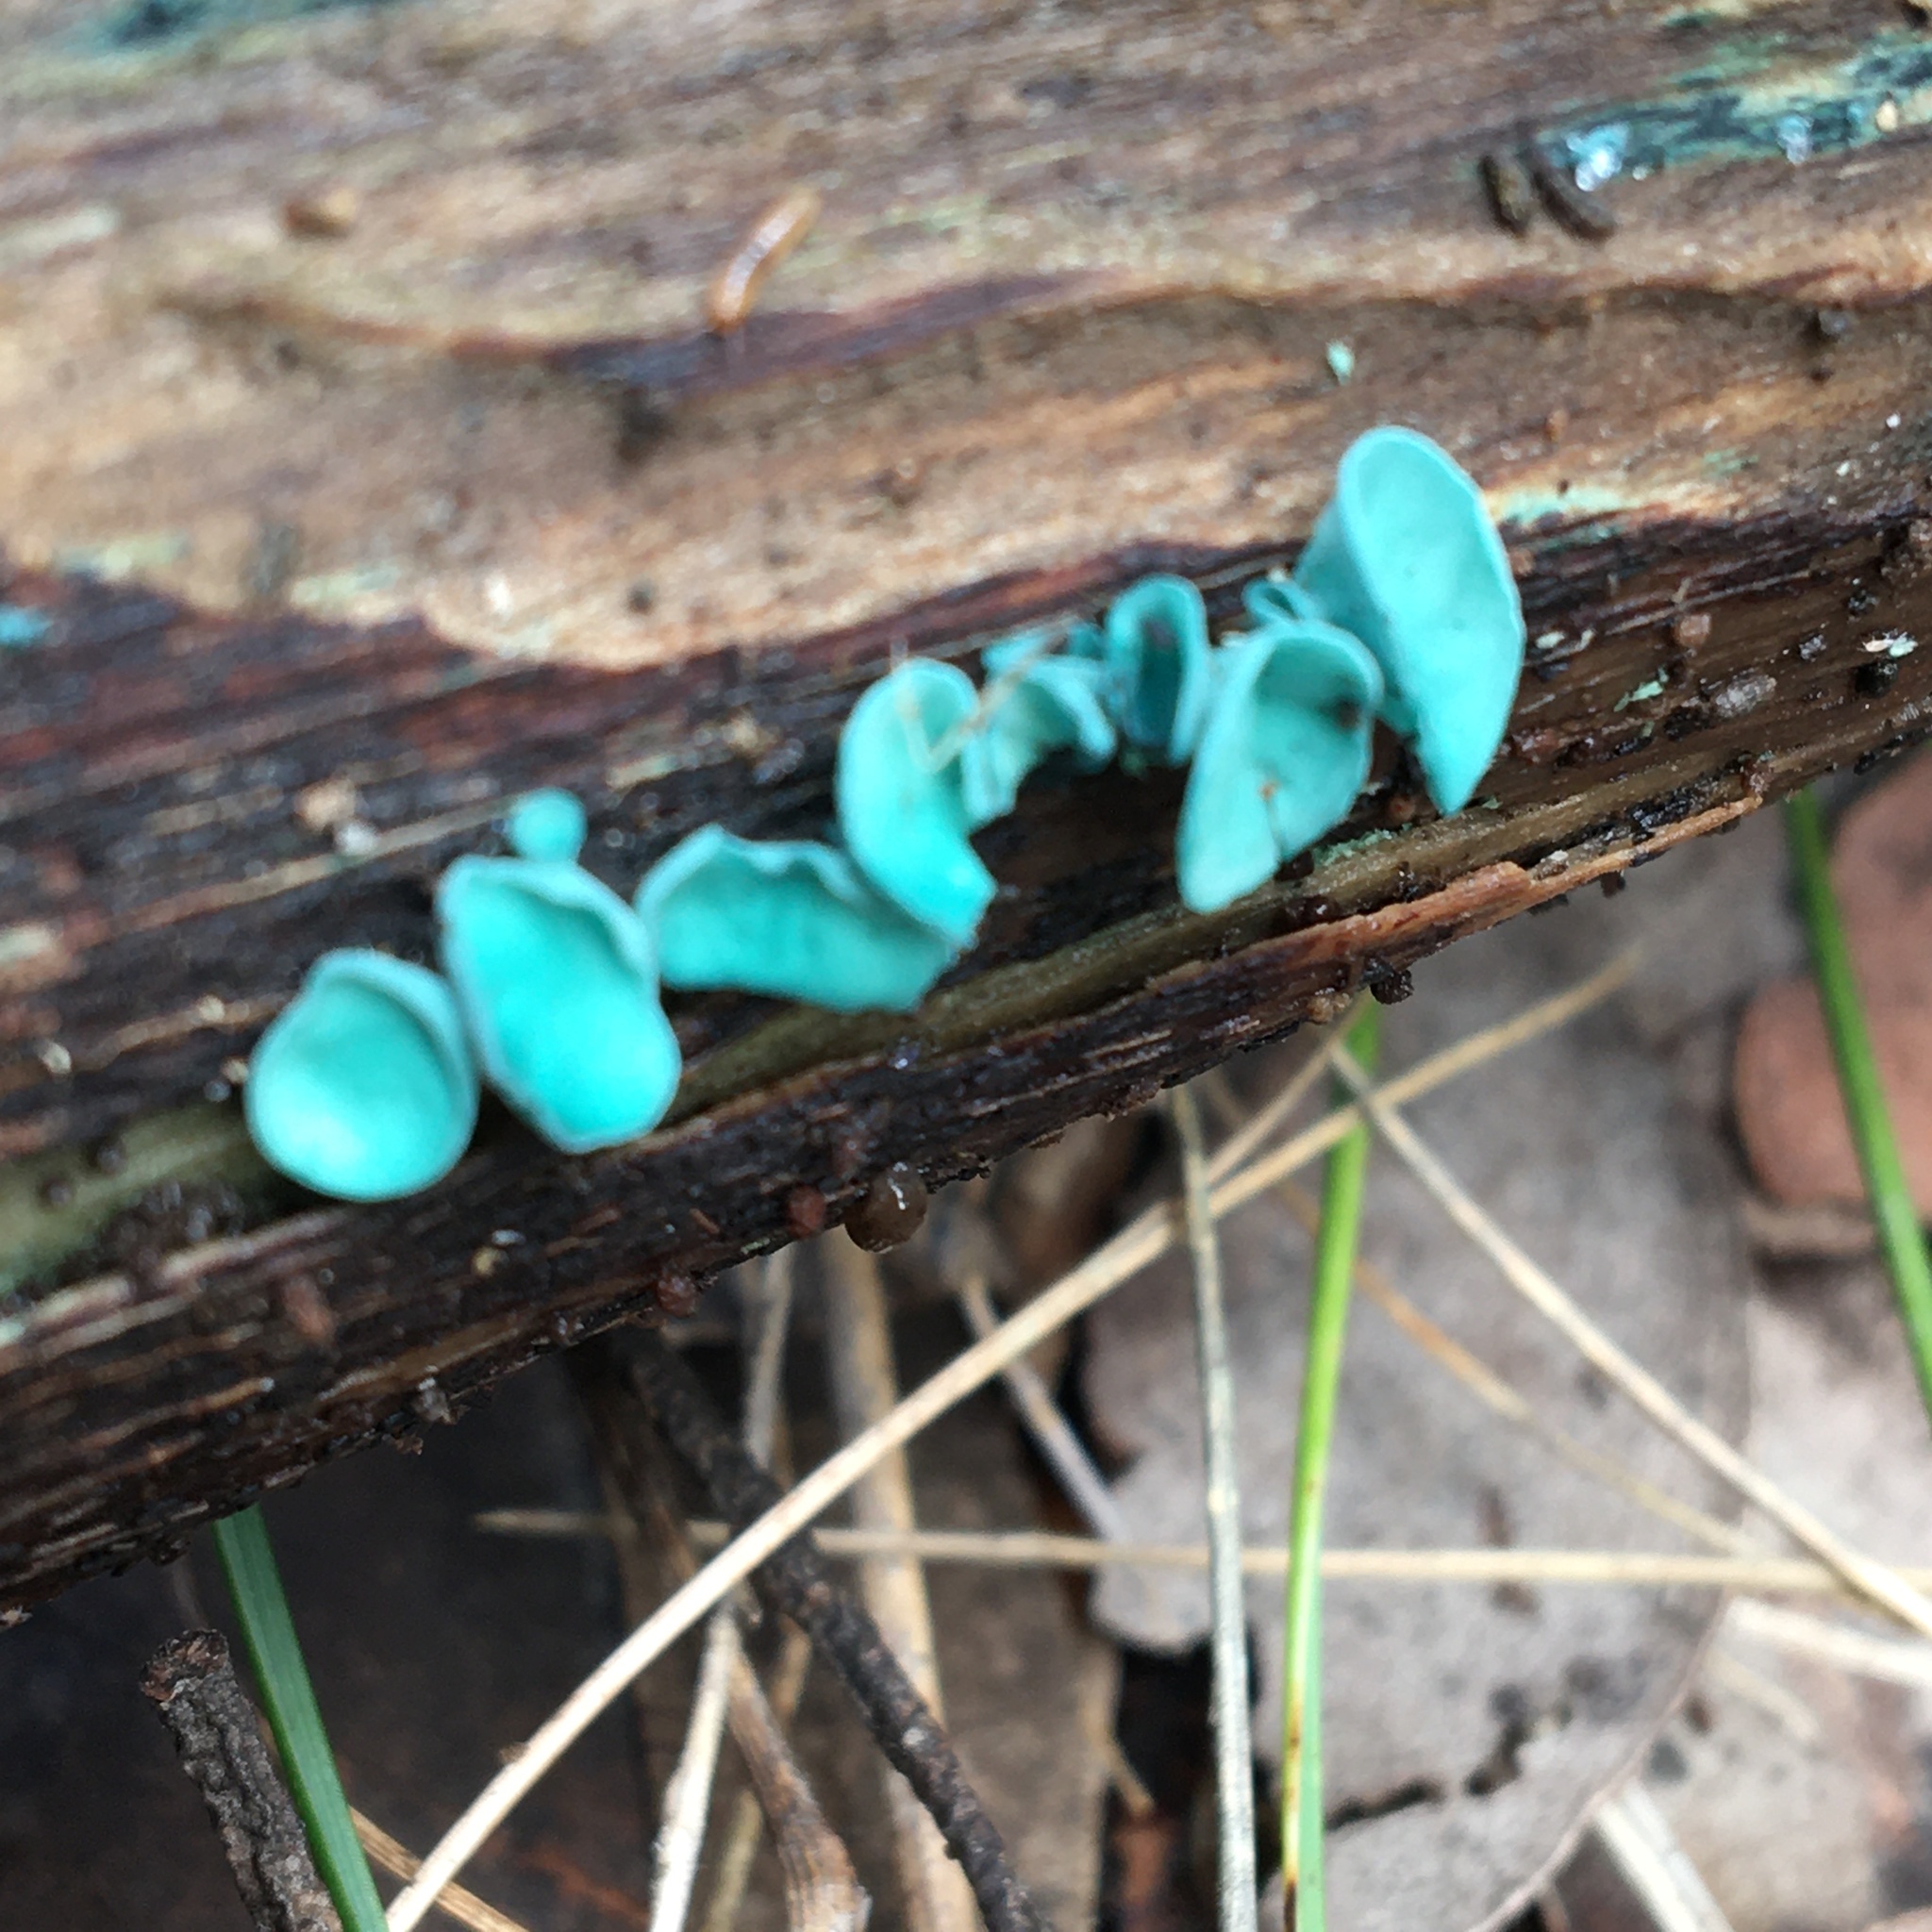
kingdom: Fungi
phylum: Ascomycota
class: Leotiomycetes
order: Helotiales
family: Chlorociboriaceae
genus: Chlorociboria
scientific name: Chlorociboria
